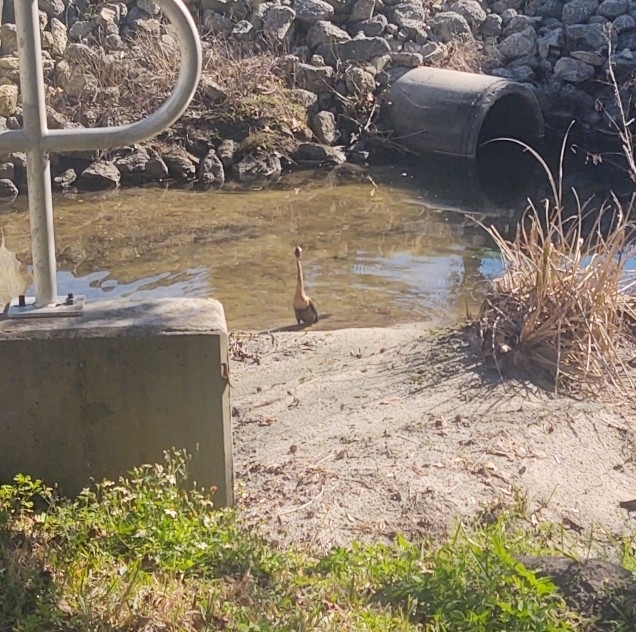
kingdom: Animalia
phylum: Chordata
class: Aves
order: Suliformes
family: Anhingidae
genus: Anhinga
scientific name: Anhinga anhinga
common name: Anhinga
